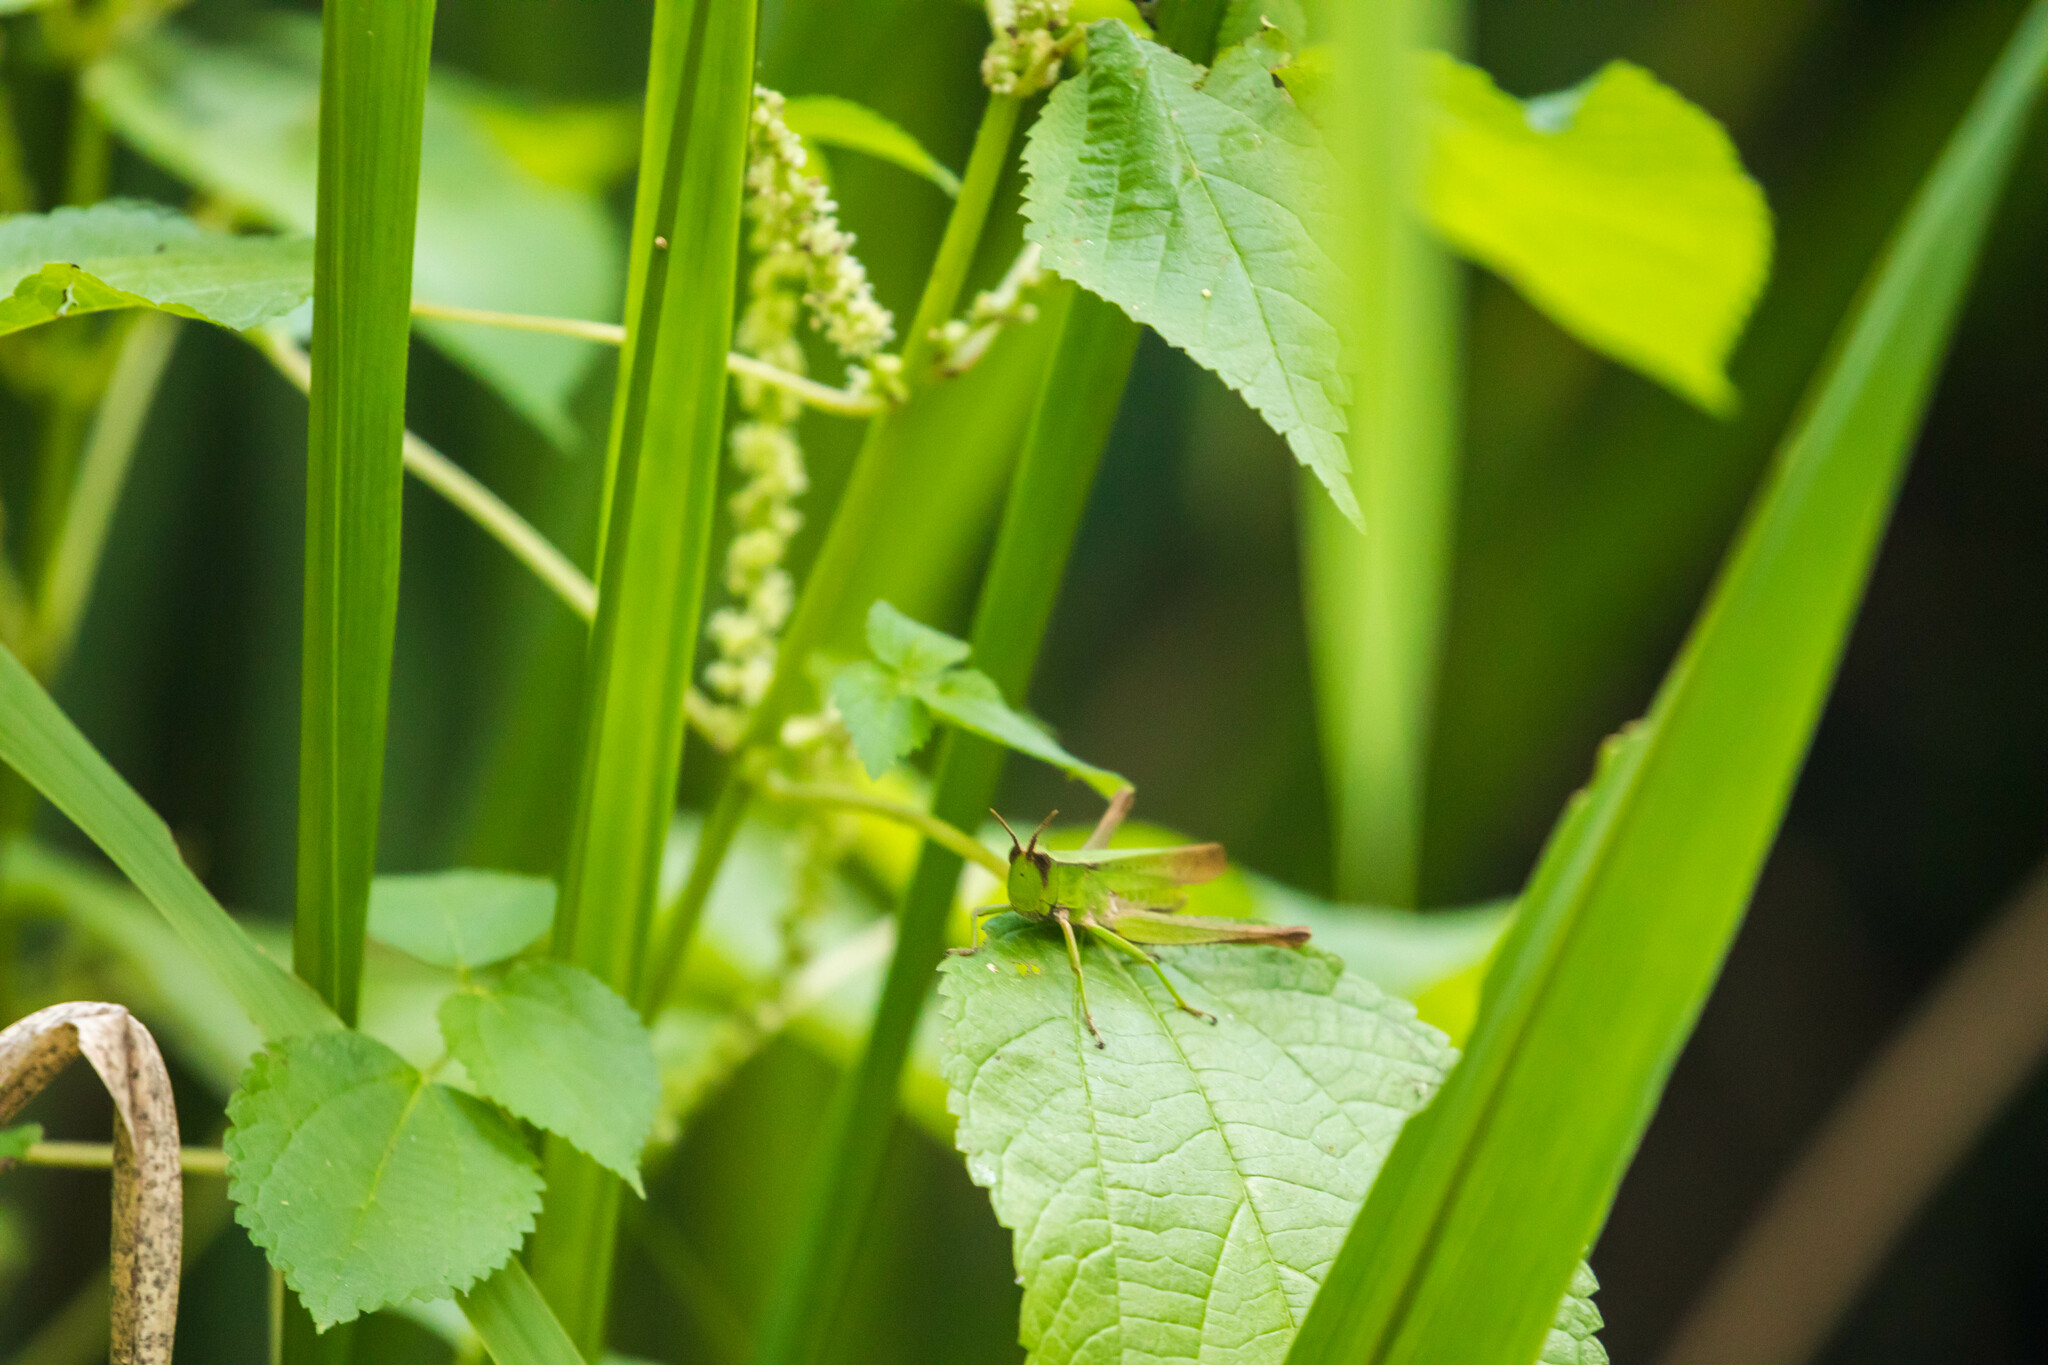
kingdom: Animalia
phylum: Arthropoda
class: Insecta
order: Orthoptera
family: Acrididae
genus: Metaleptea
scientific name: Metaleptea brevicornis
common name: Clipped-wing grasshopper
